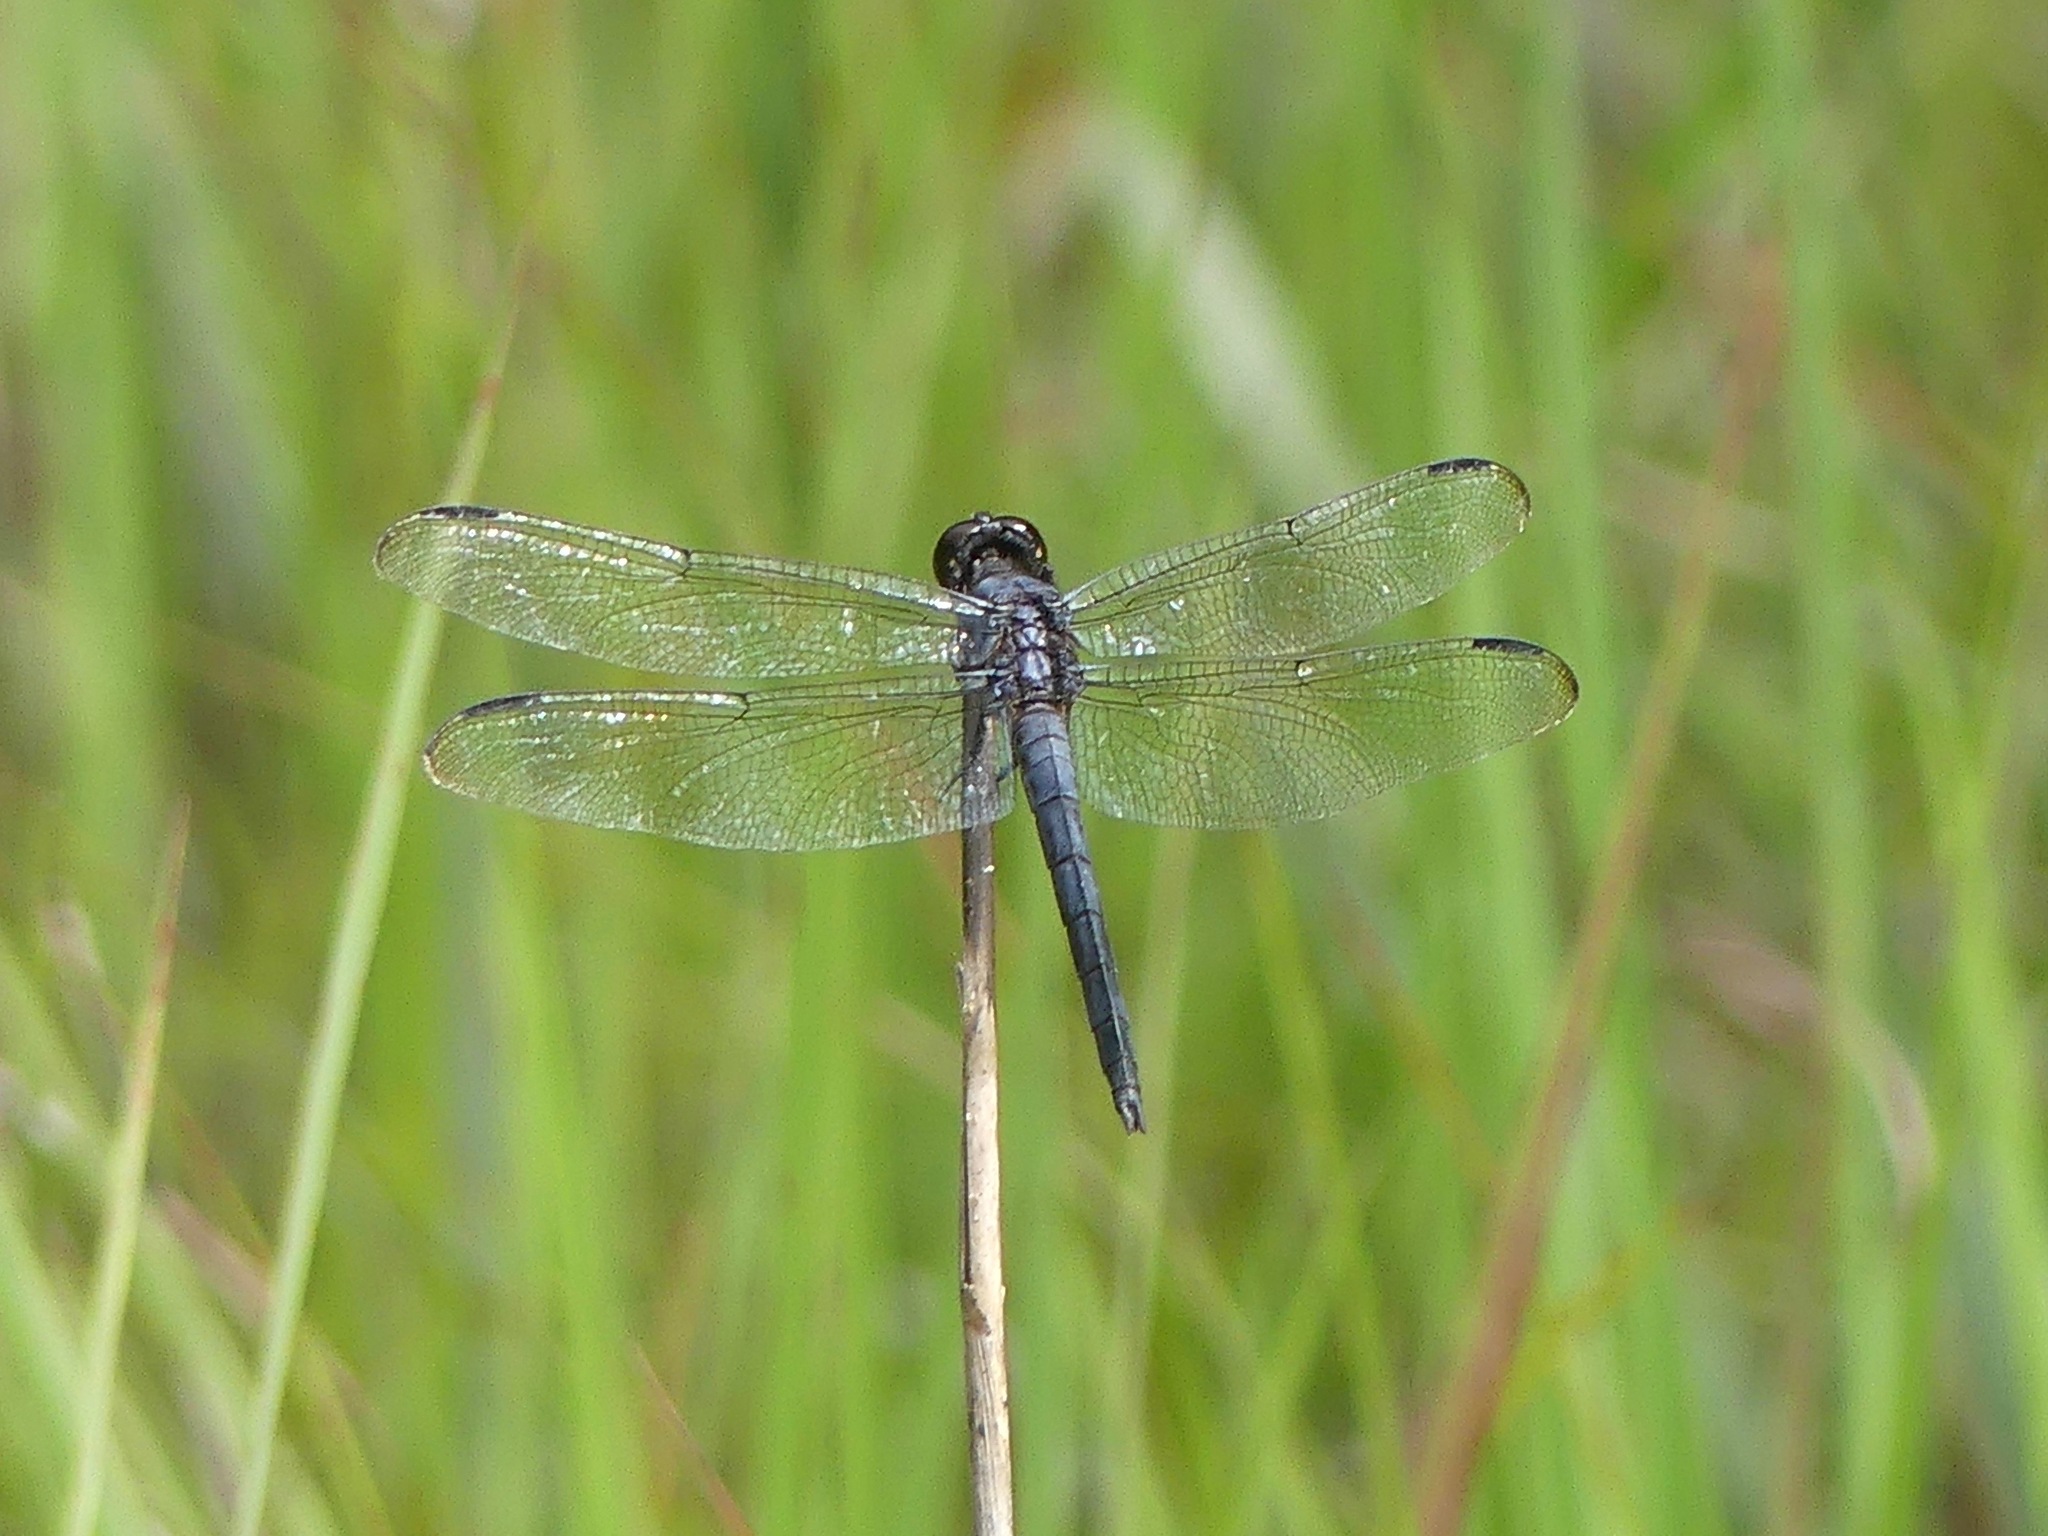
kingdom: Animalia
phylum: Arthropoda
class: Insecta
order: Odonata
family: Libellulidae
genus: Libellula
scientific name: Libellula incesta
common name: Slaty skimmer
